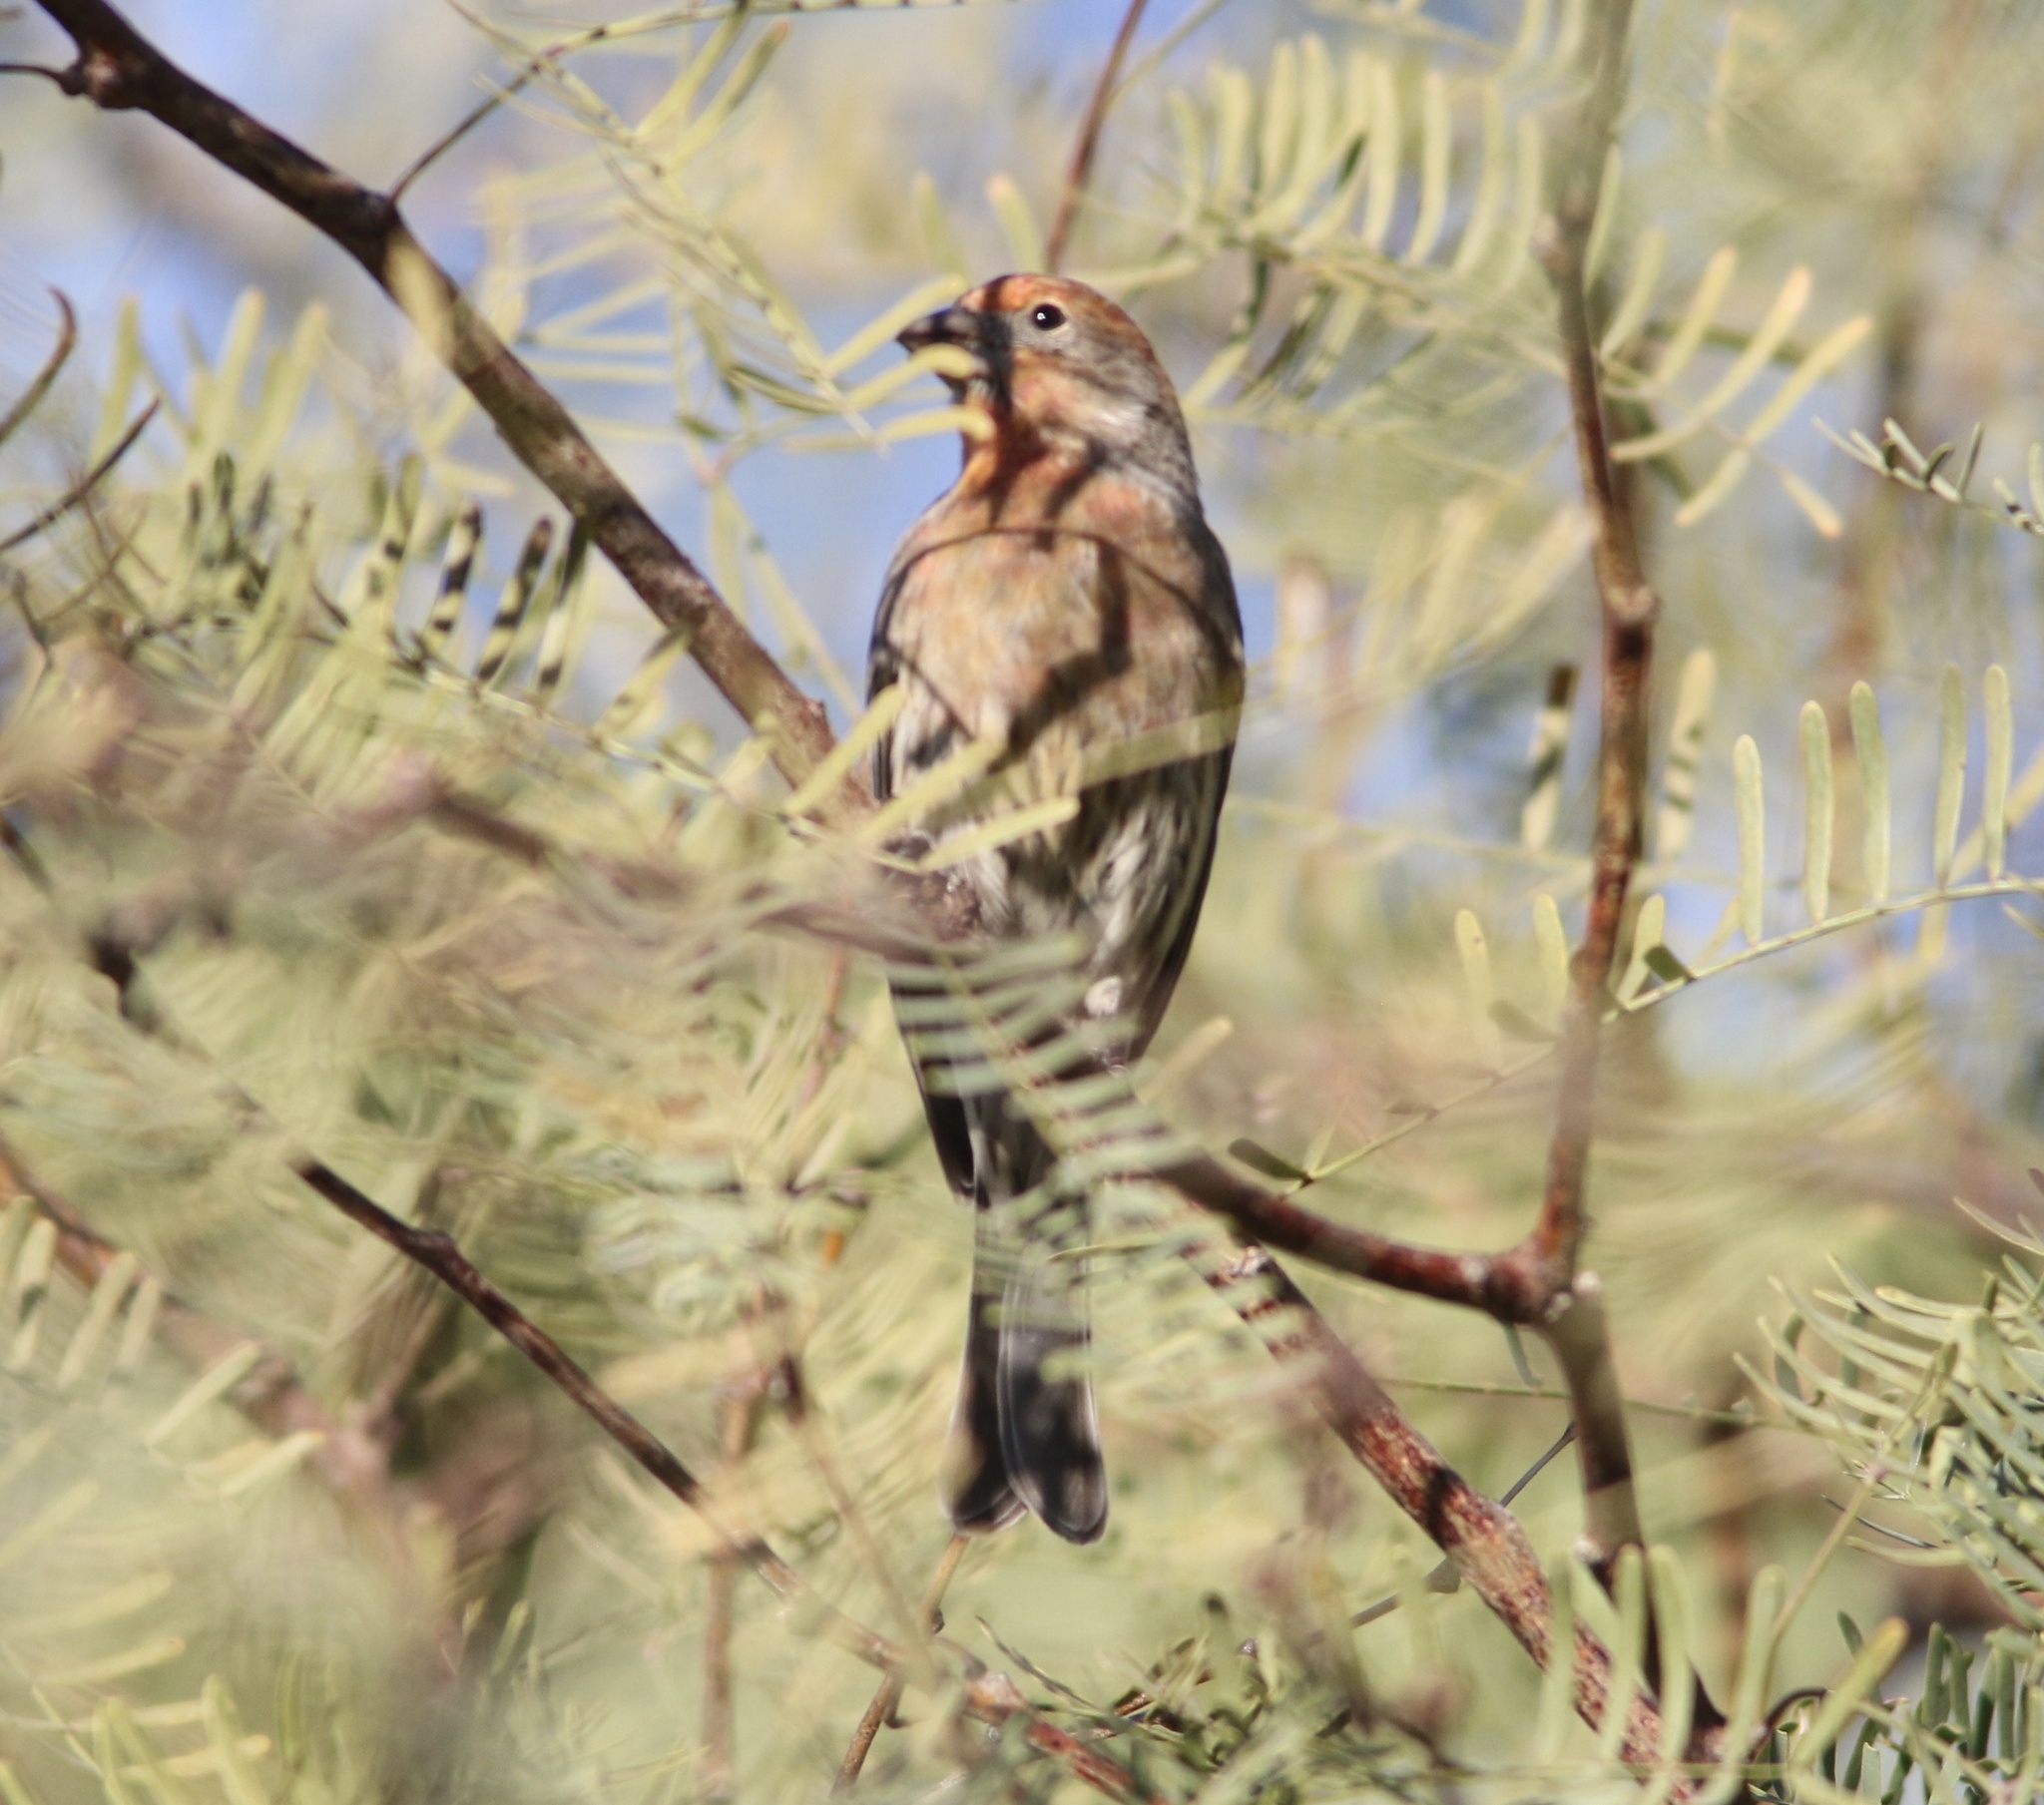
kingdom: Animalia
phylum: Chordata
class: Aves
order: Passeriformes
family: Fringillidae
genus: Haemorhous
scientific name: Haemorhous mexicanus
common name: House finch
